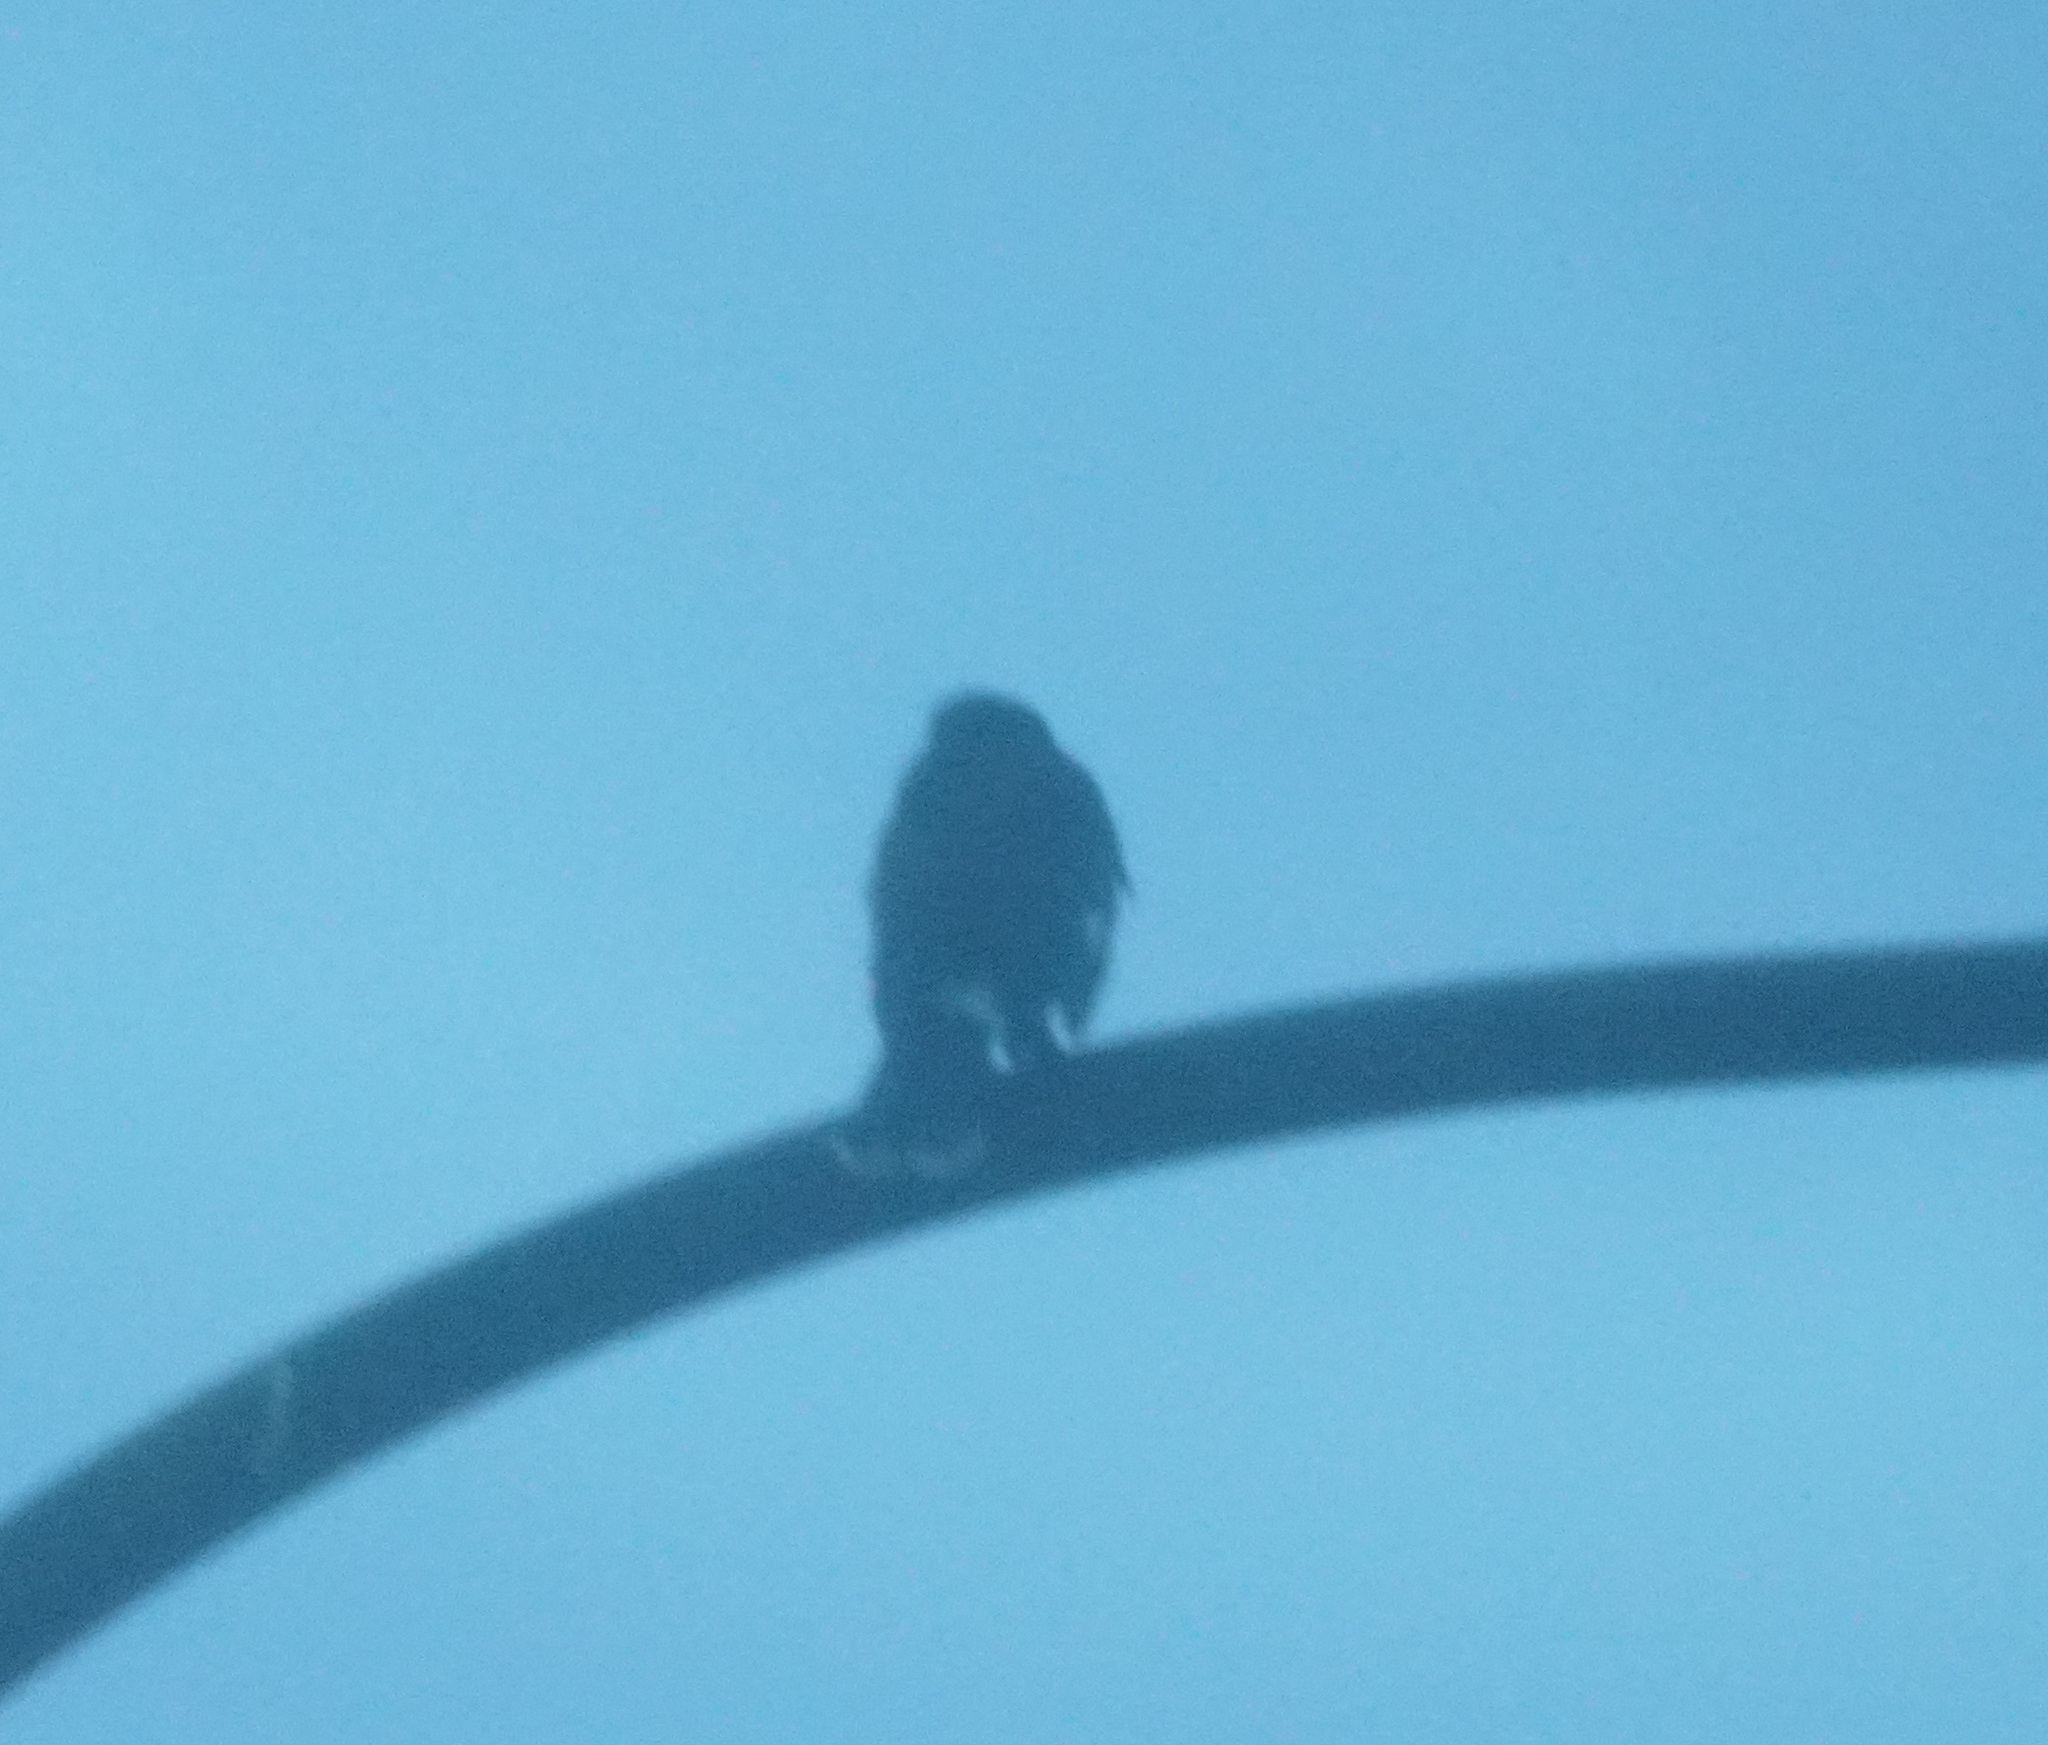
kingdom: Animalia
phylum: Chordata
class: Aves
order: Passeriformes
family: Cracticidae
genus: Strepera
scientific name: Strepera graculina
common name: Pied currawong
